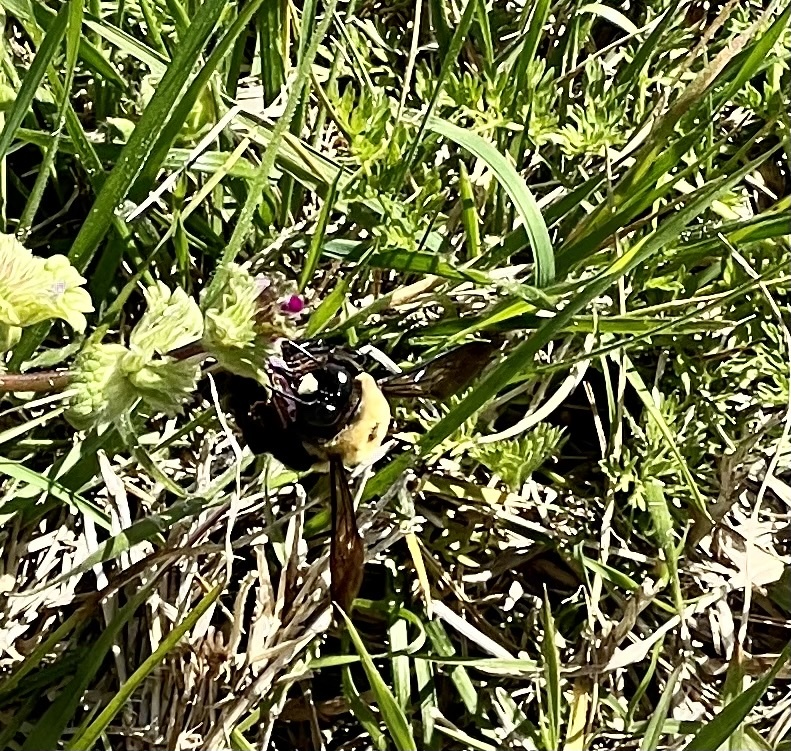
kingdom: Animalia
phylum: Arthropoda
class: Insecta
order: Hymenoptera
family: Apidae
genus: Xylocopa
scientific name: Xylocopa virginica
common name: Carpenter bee
